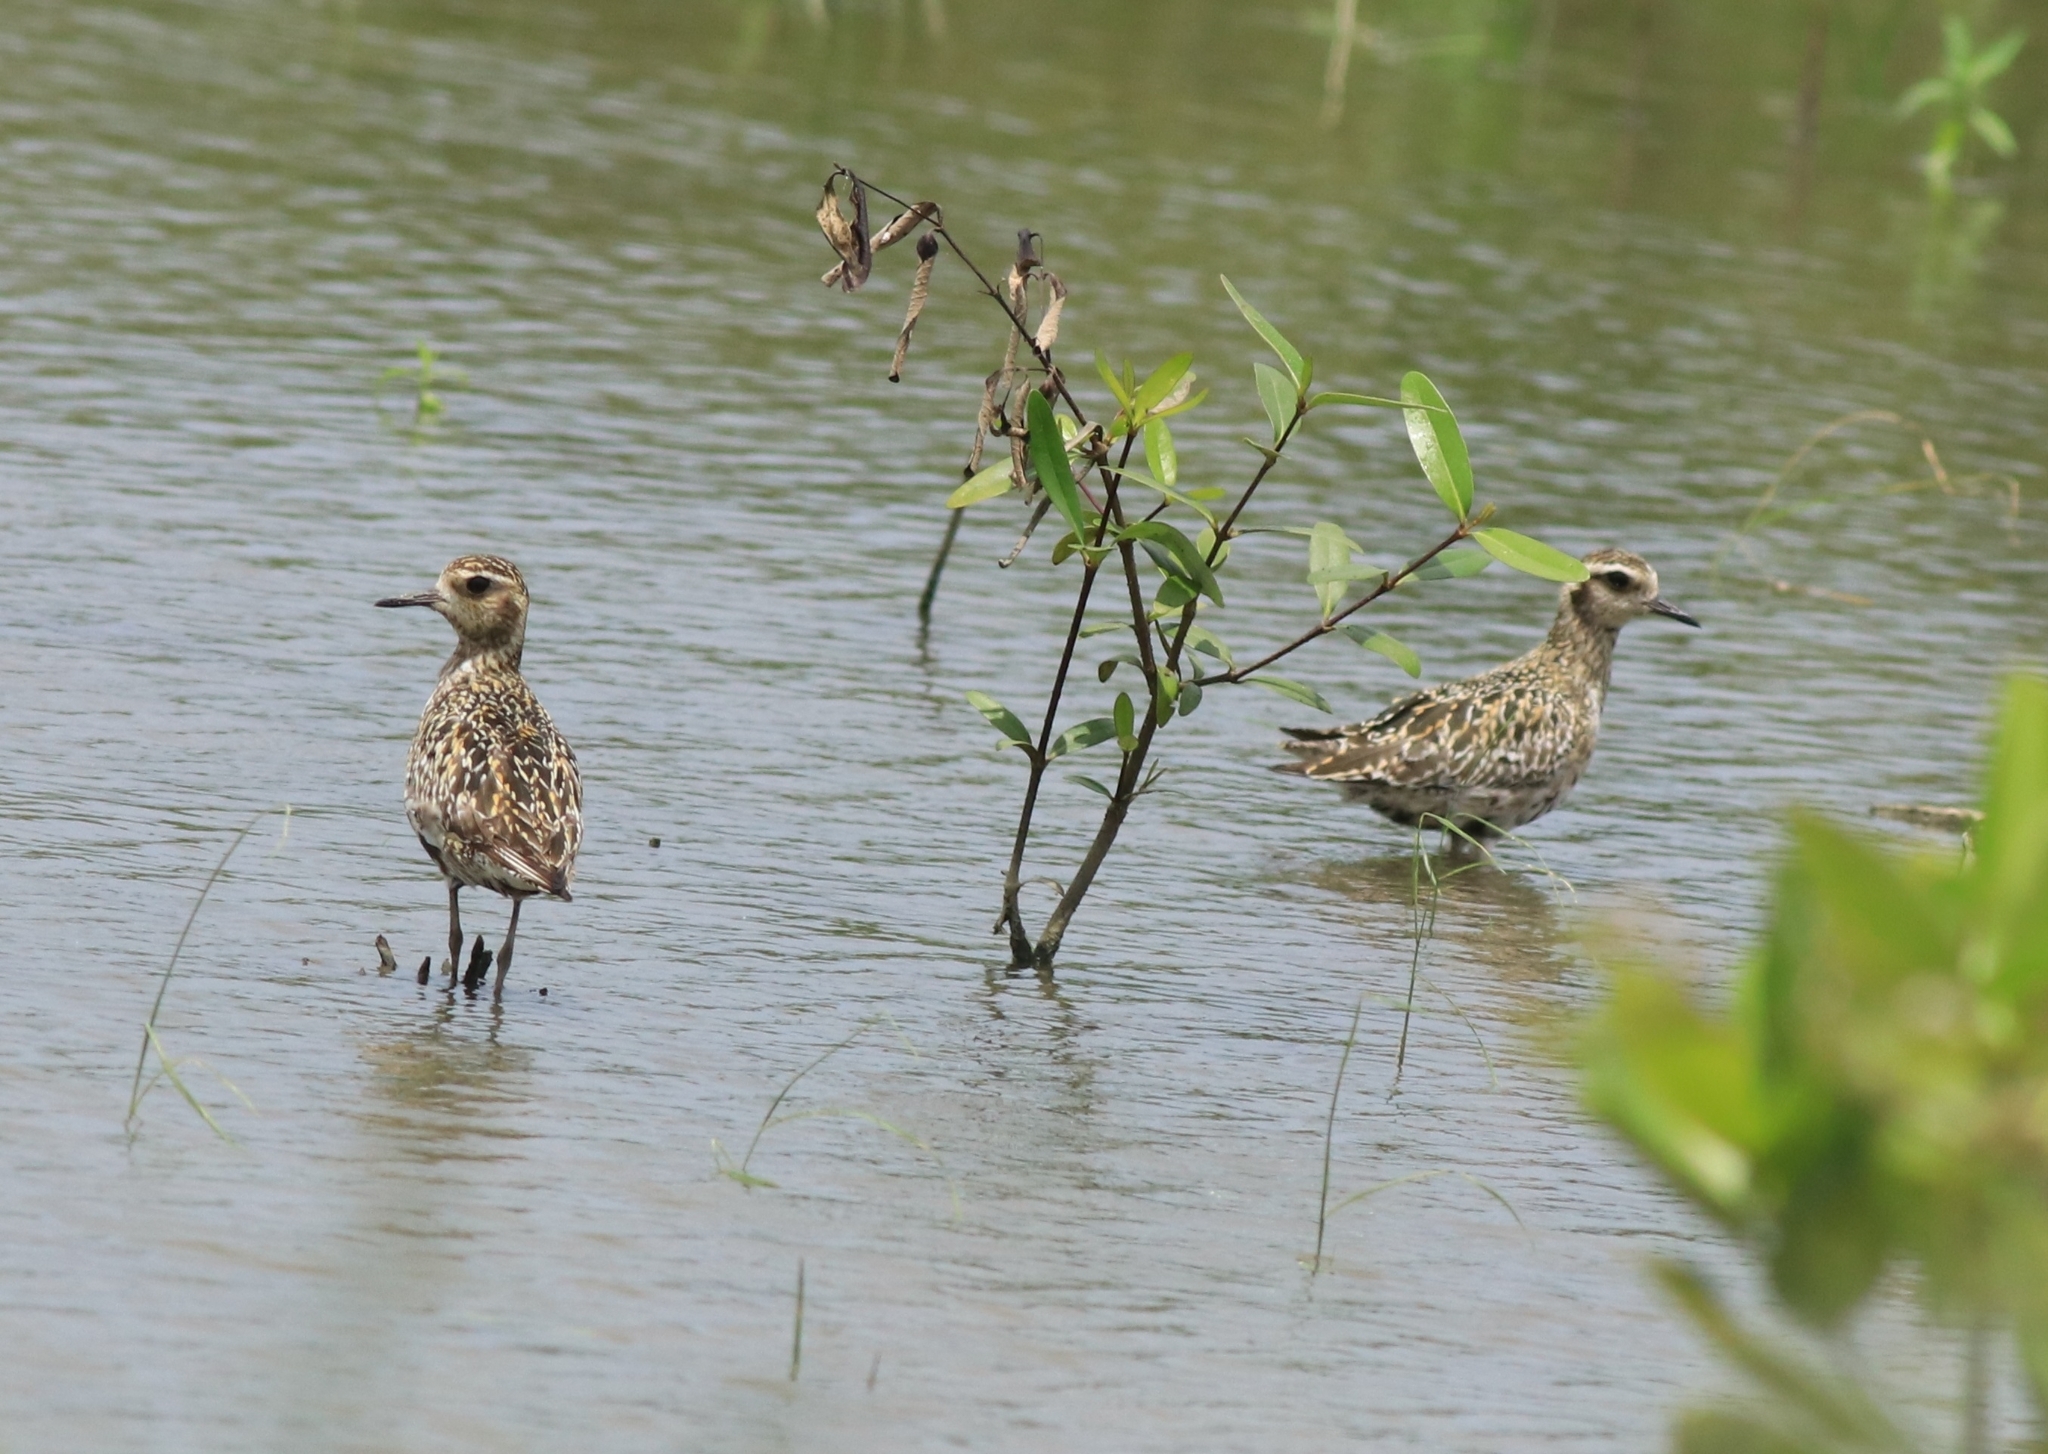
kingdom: Animalia
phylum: Chordata
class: Aves
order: Charadriiformes
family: Charadriidae
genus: Pluvialis
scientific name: Pluvialis fulva
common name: Pacific golden plover
